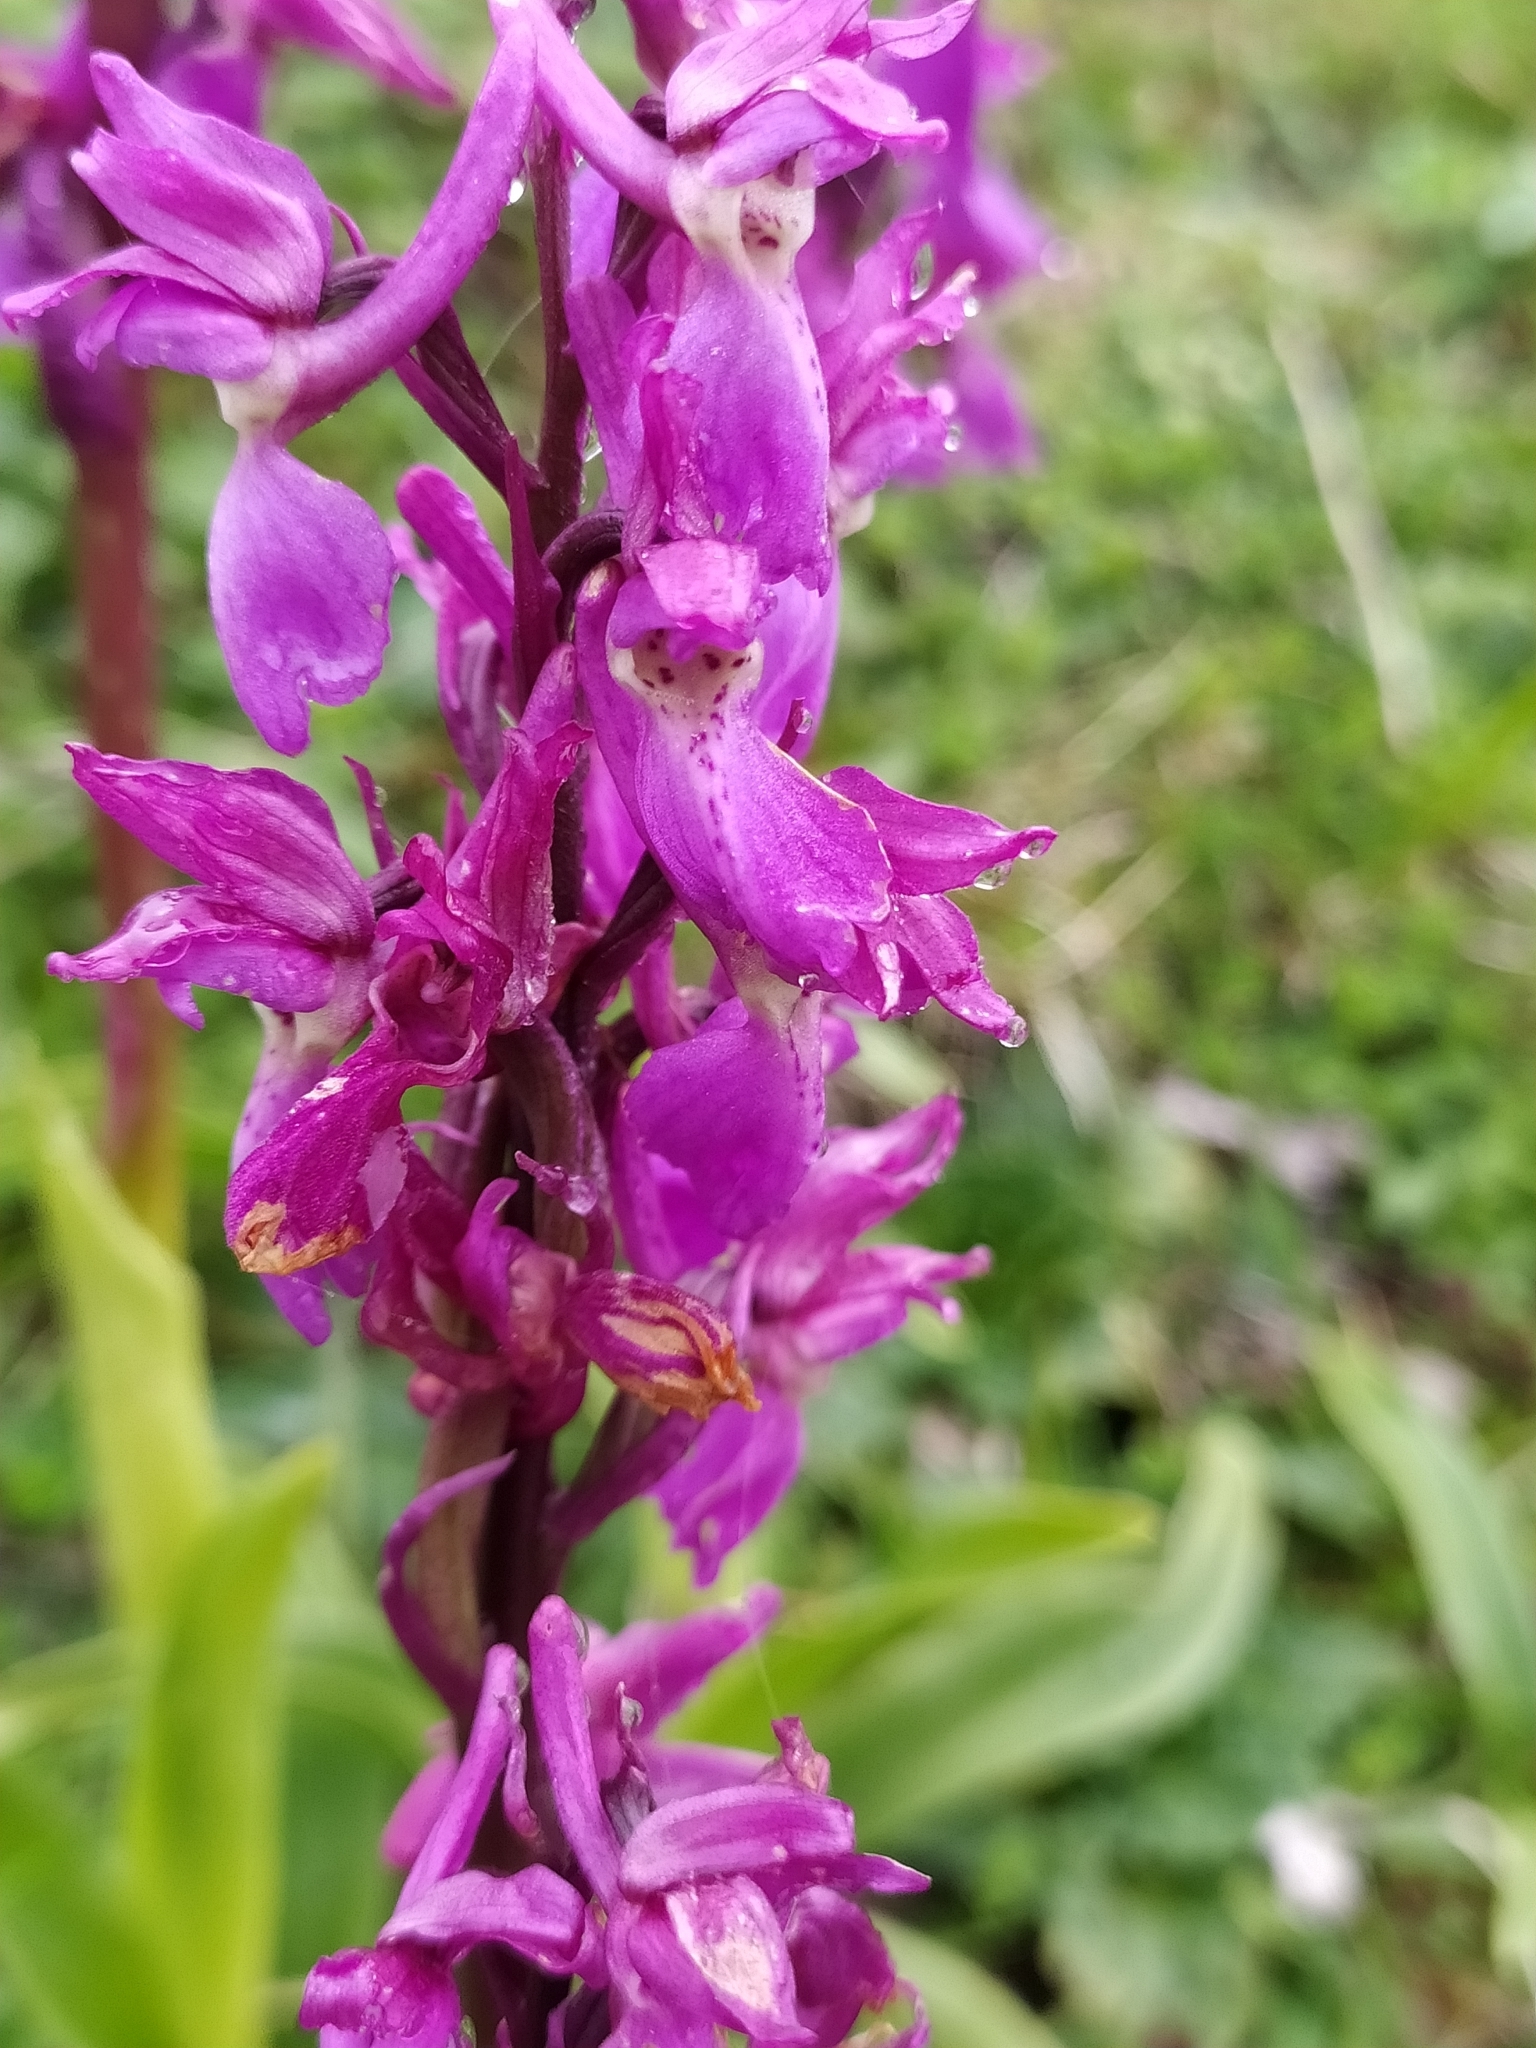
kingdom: Plantae
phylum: Tracheophyta
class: Liliopsida
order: Asparagales
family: Orchidaceae
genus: Orchis
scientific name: Orchis mascula
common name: Early-purple orchid
